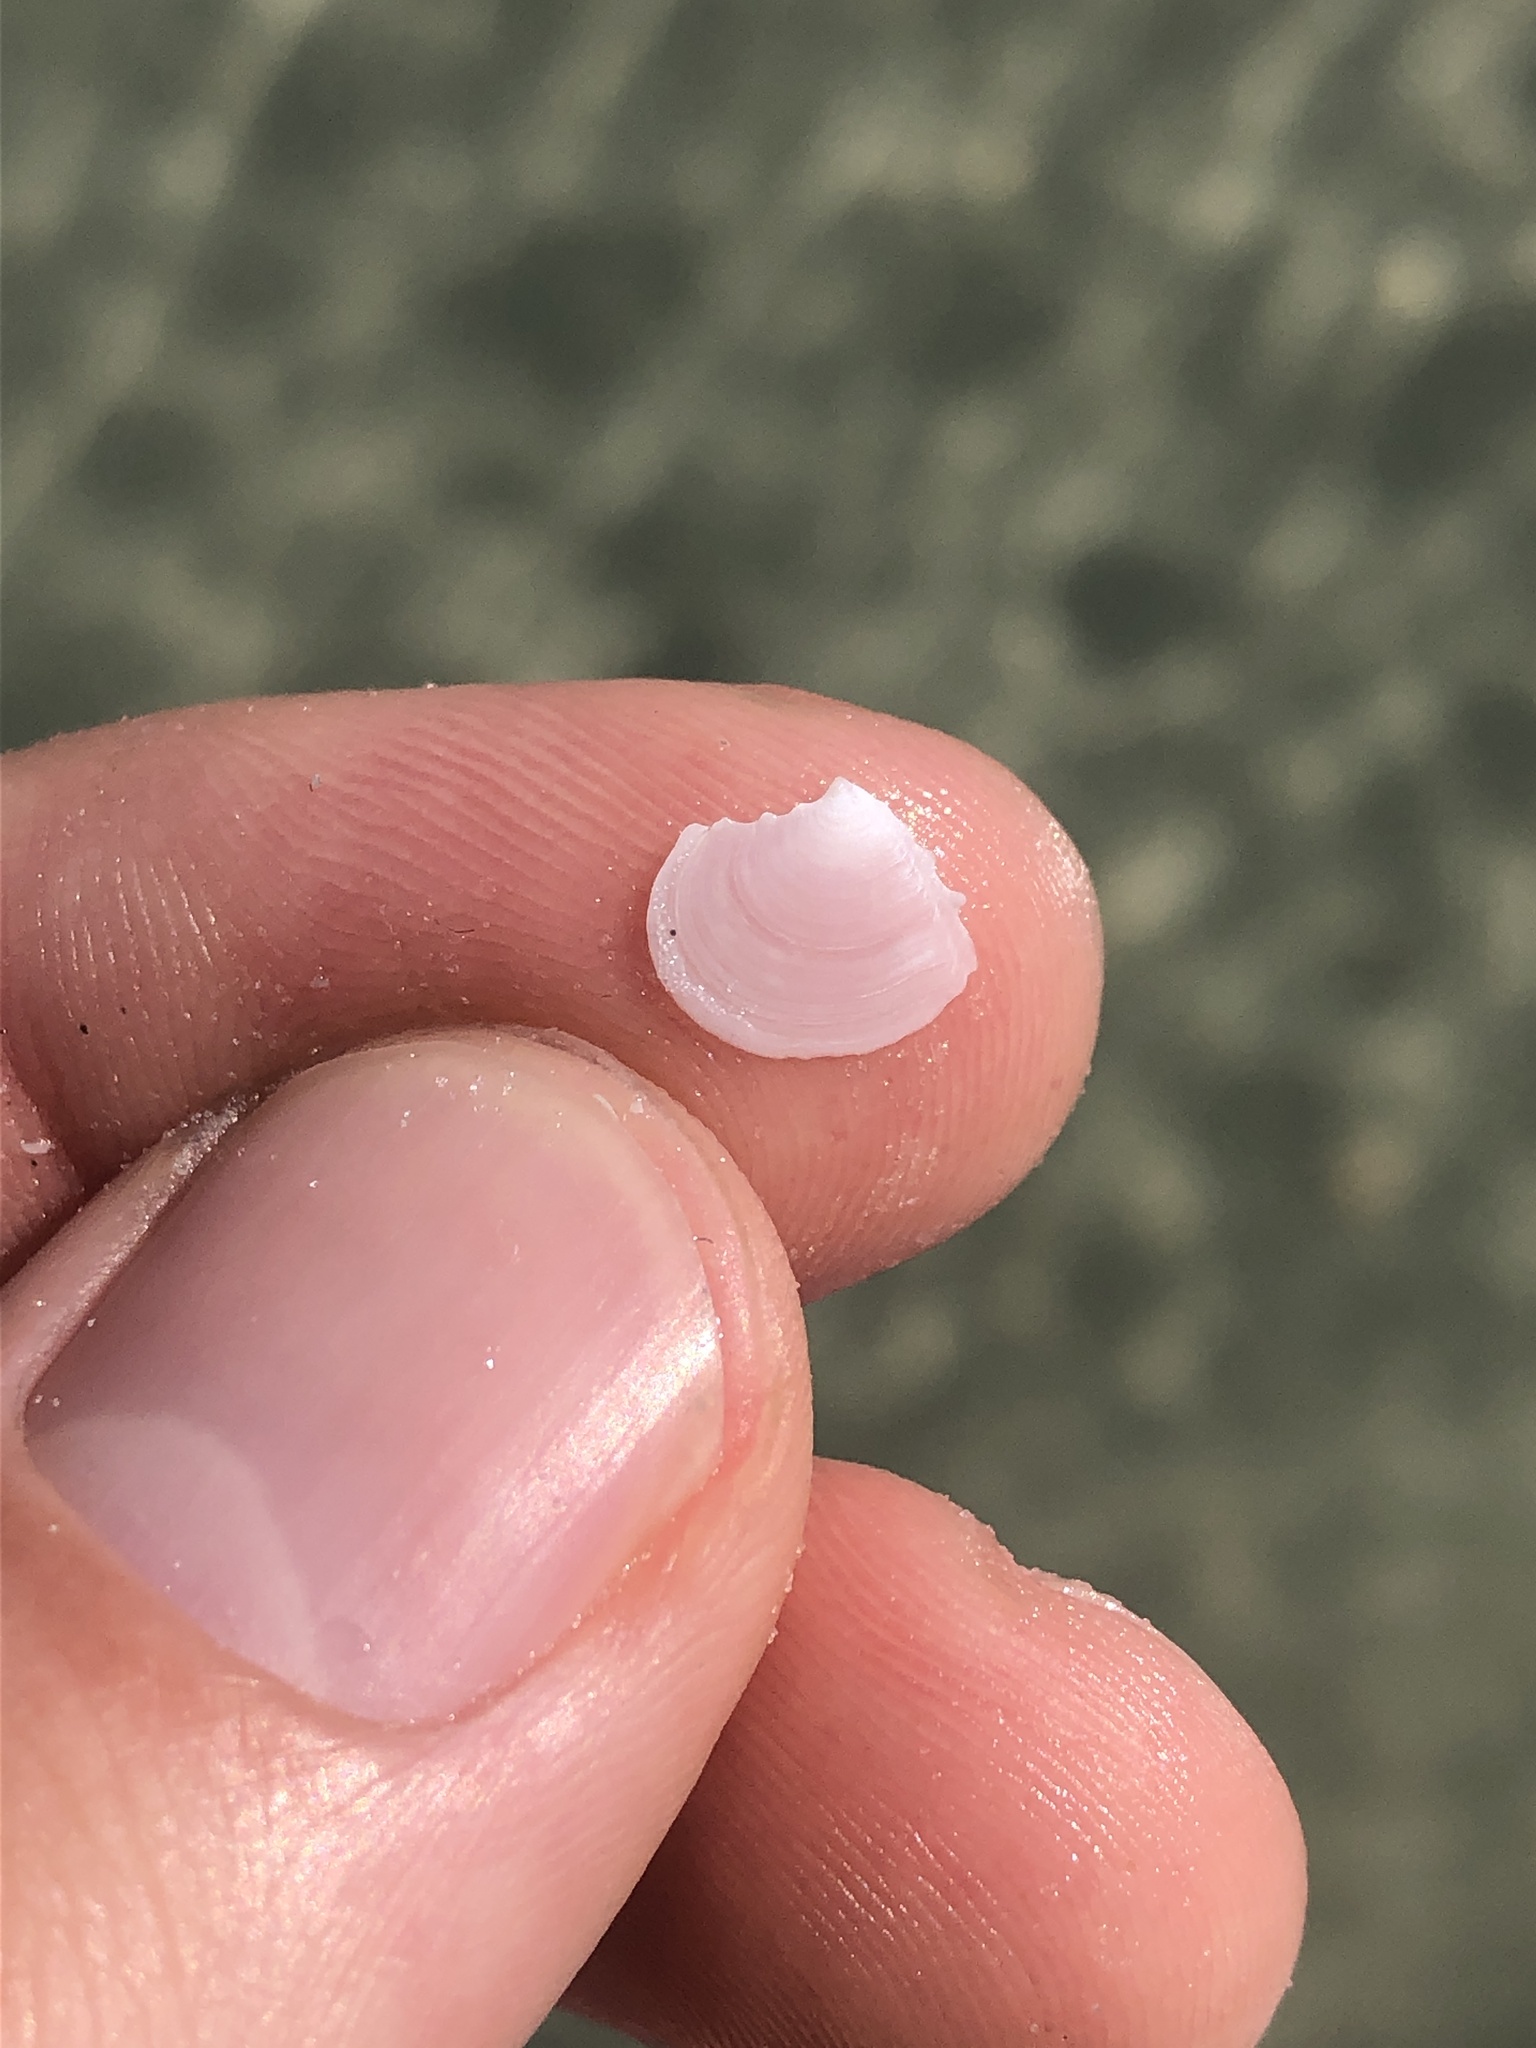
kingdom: Animalia
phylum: Mollusca
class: Bivalvia
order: Cardiida
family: Tellinidae
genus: Tellidora
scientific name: Tellidora cristata
